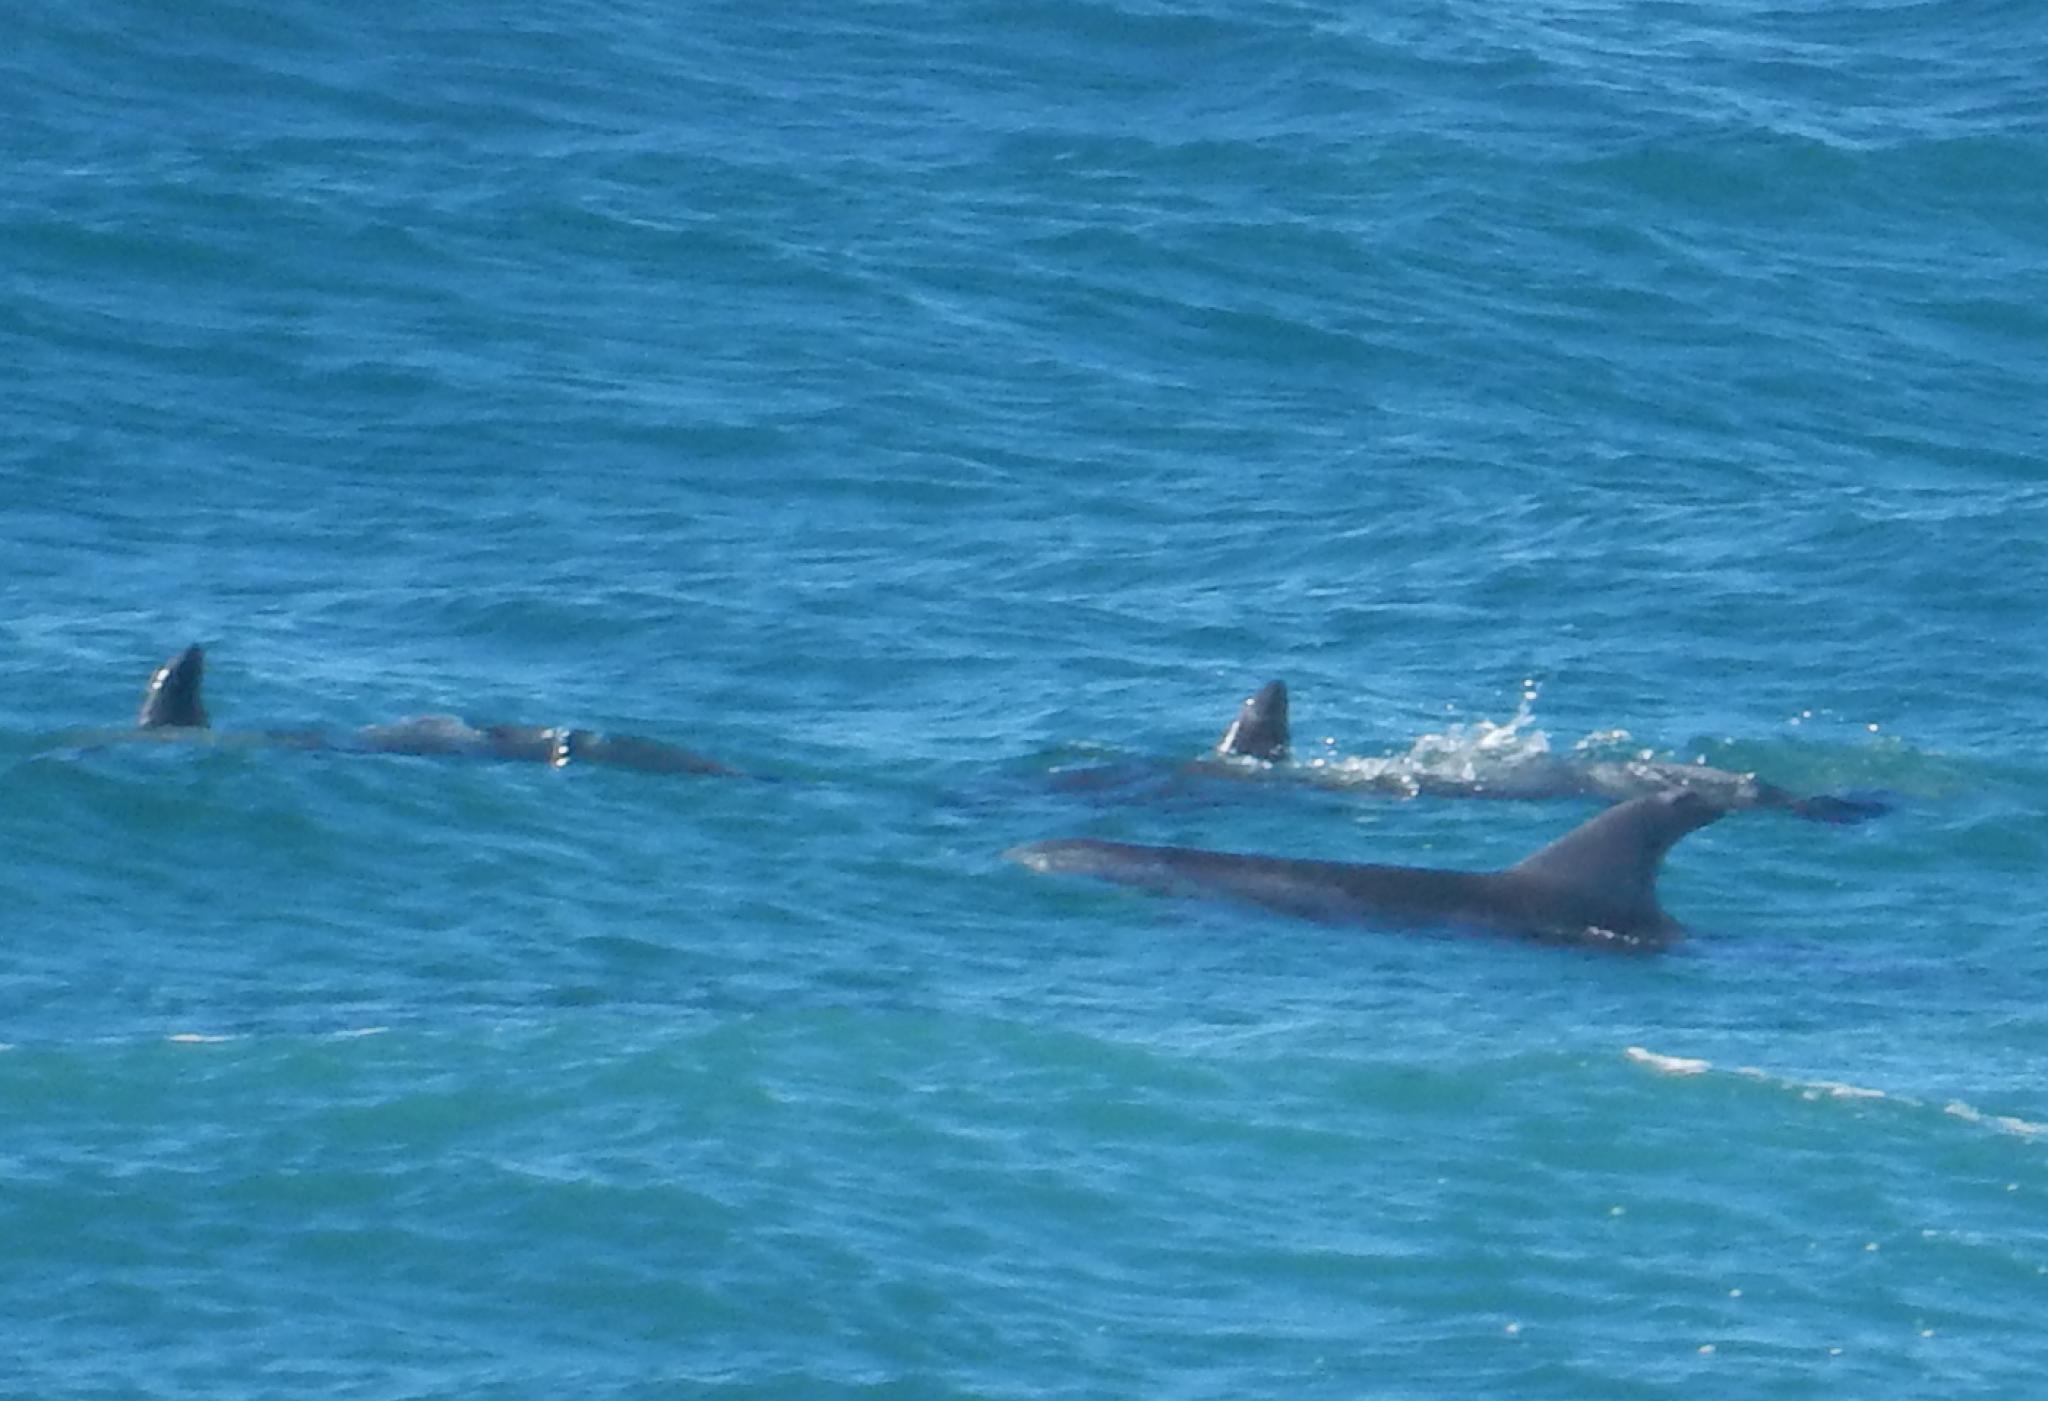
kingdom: Animalia
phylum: Chordata
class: Mammalia
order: Cetacea
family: Delphinidae
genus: Tursiops
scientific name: Tursiops aduncus
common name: Indo-pacific bottlenose dolphin
